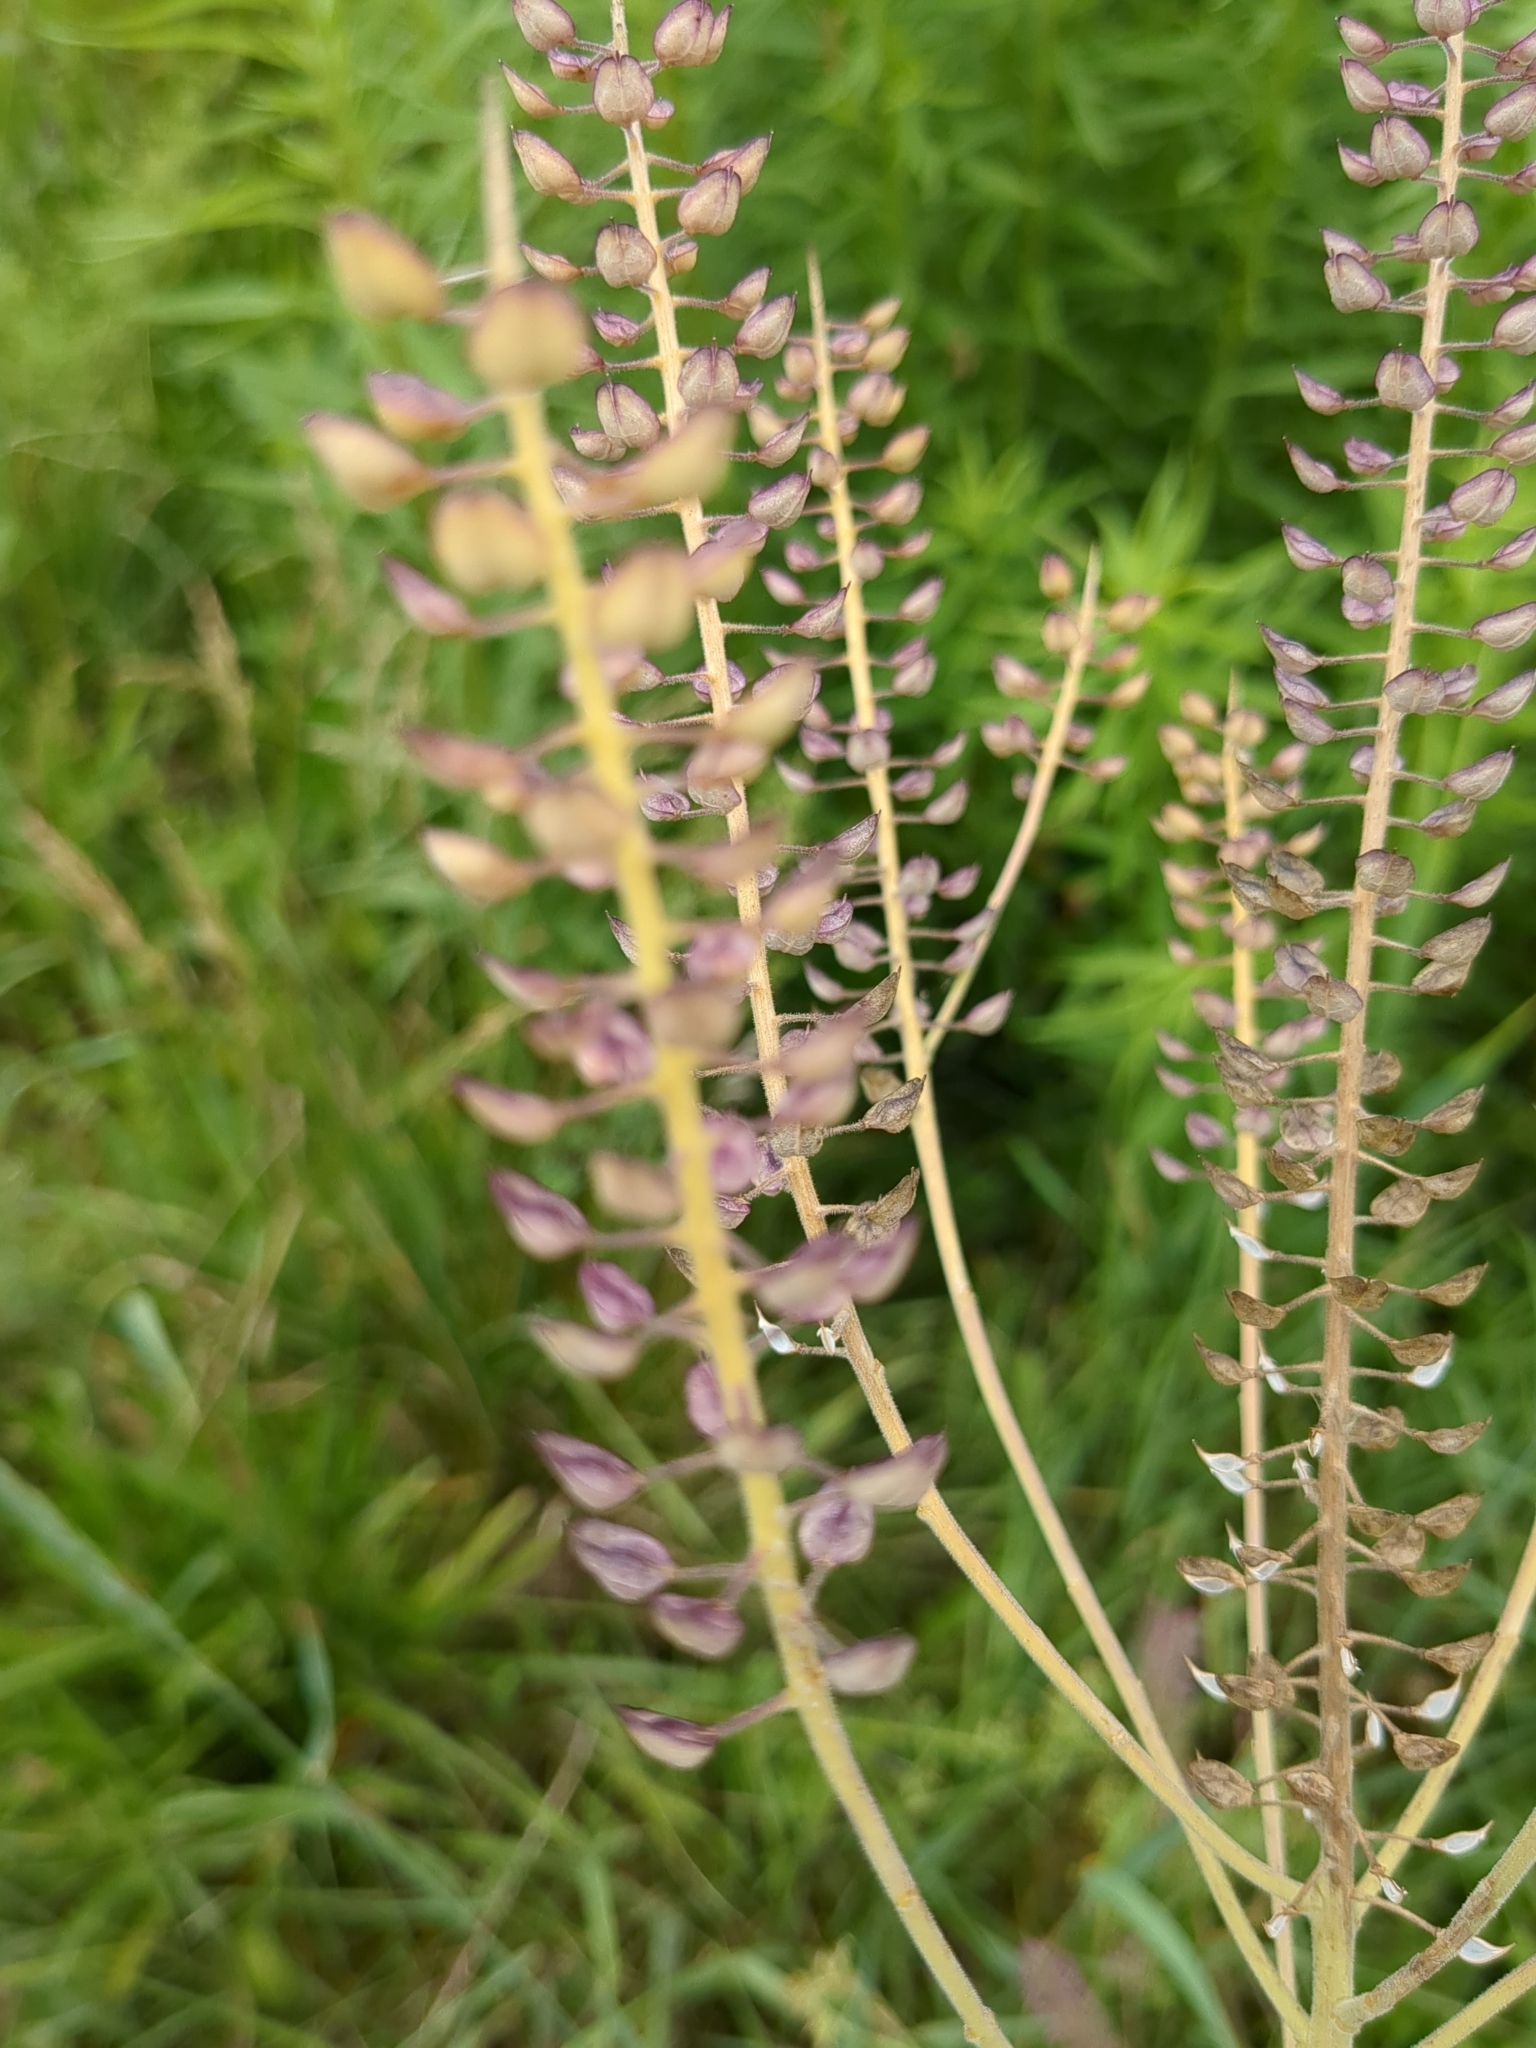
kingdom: Plantae
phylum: Tracheophyta
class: Magnoliopsida
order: Brassicales
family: Brassicaceae
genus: Lepidium
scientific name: Lepidium campestre
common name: Field pepperwort
